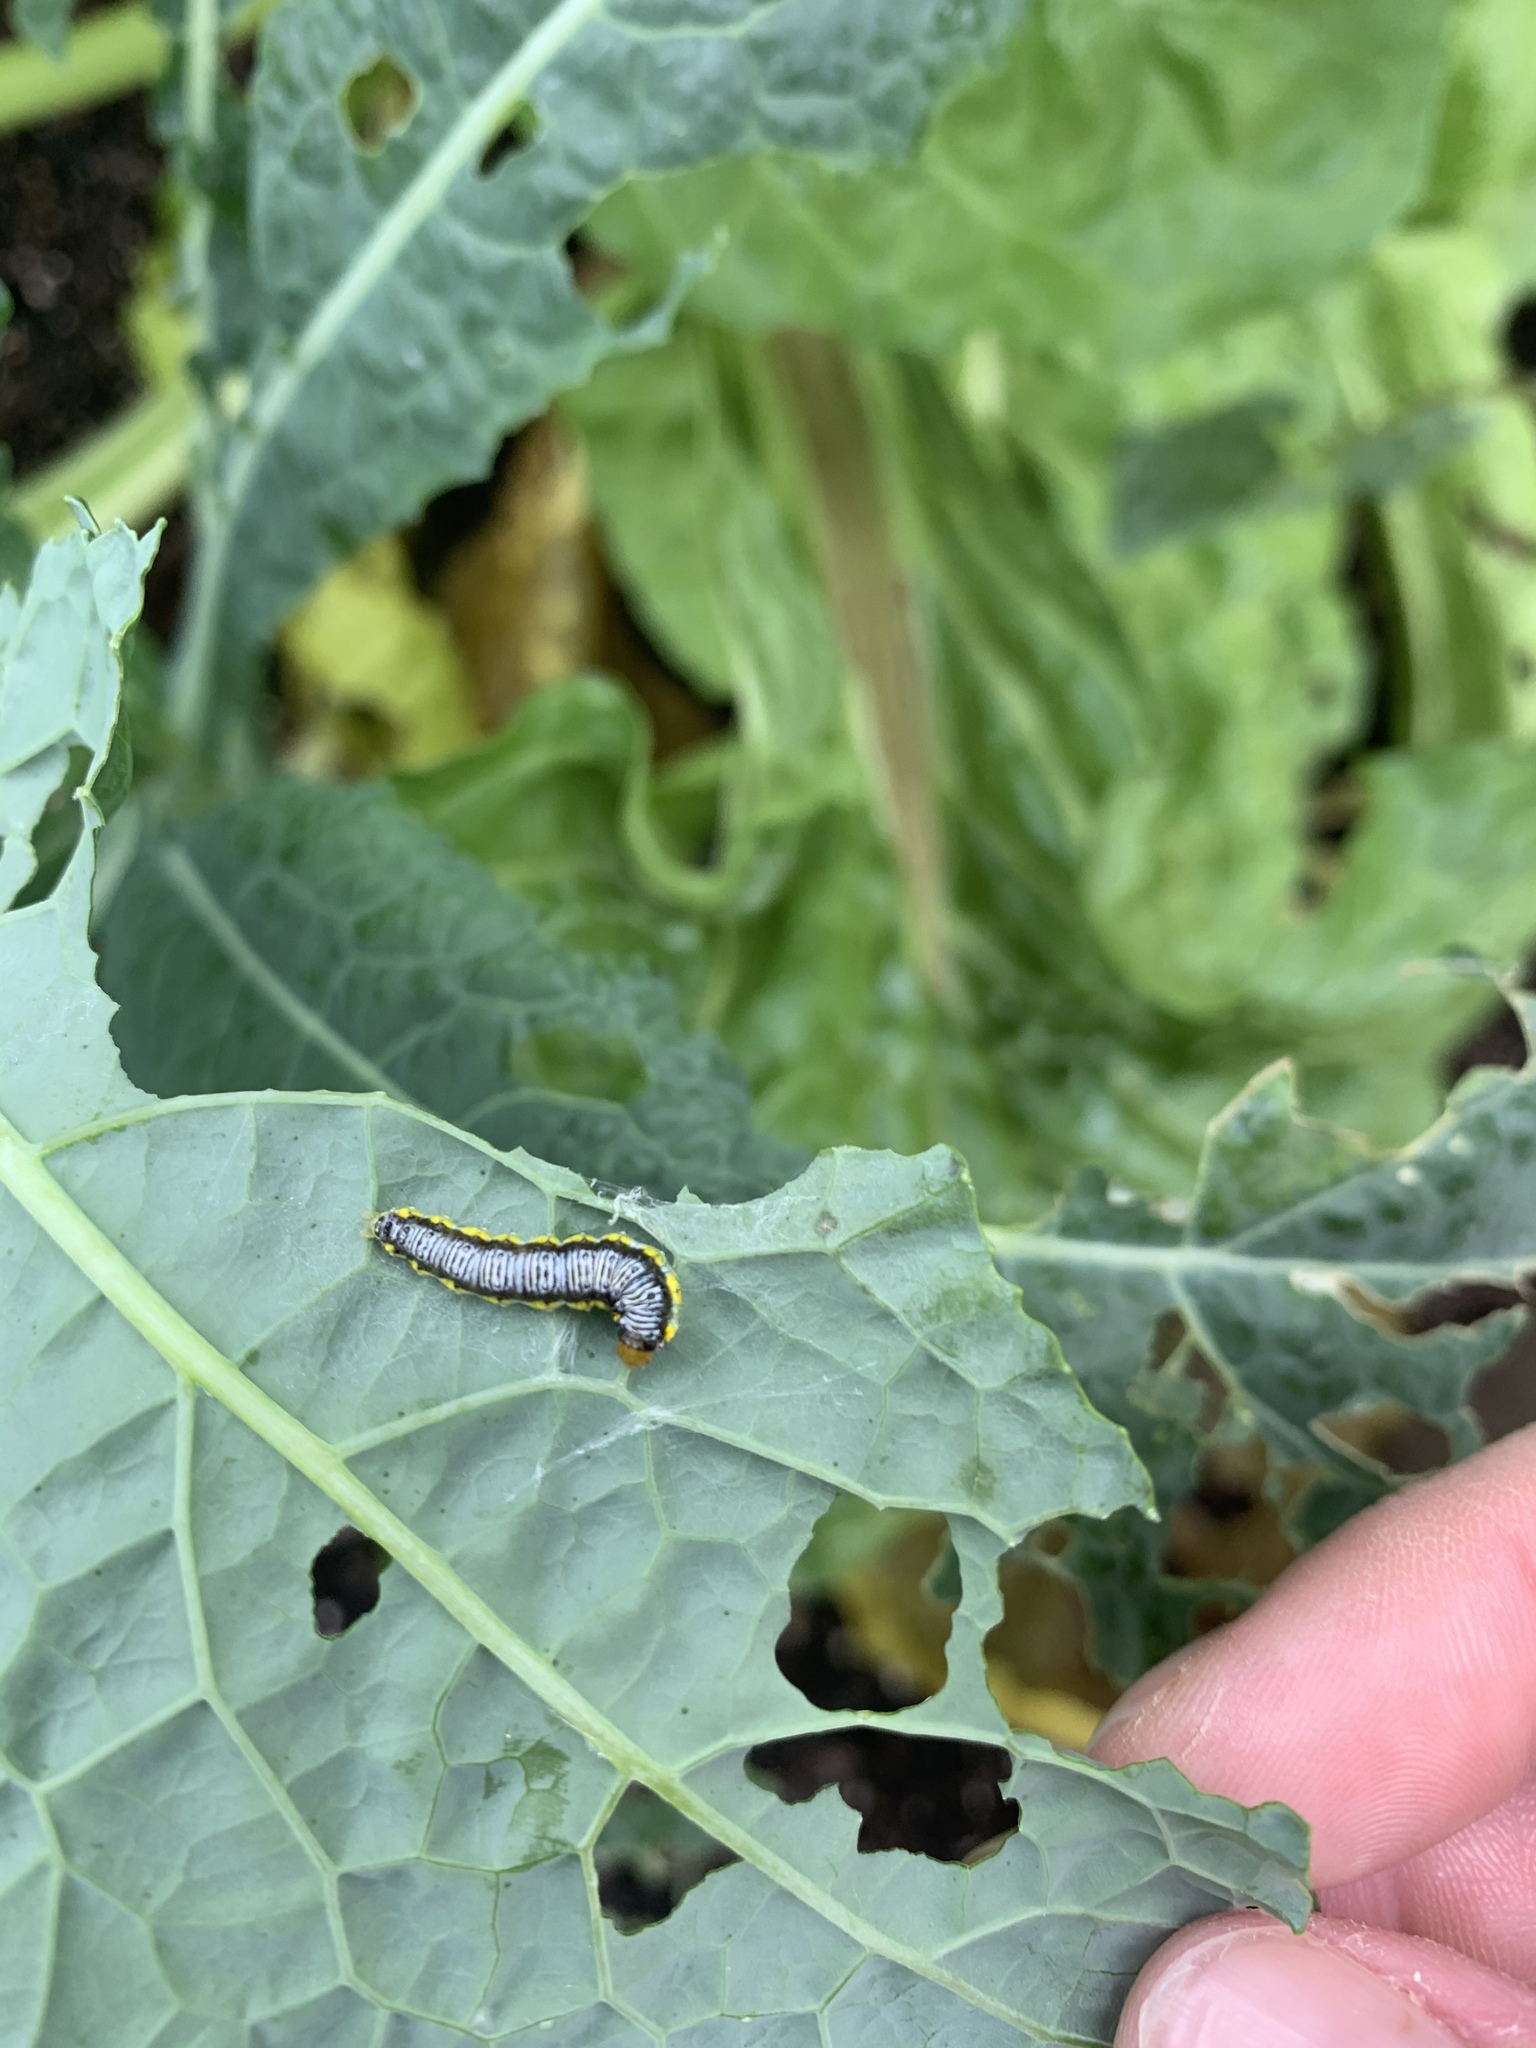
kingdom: Animalia
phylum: Arthropoda
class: Insecta
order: Lepidoptera
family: Crambidae
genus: Evergestis
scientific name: Evergestis rimosalis
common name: Cross-striped cabbageworm moth
